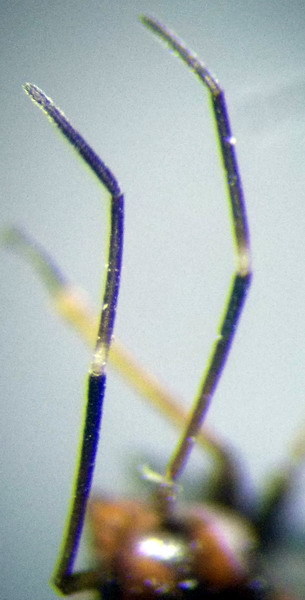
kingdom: Animalia
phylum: Arthropoda
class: Insecta
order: Hemiptera
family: Miridae
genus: Systellonotus
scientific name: Systellonotus triguttatus
